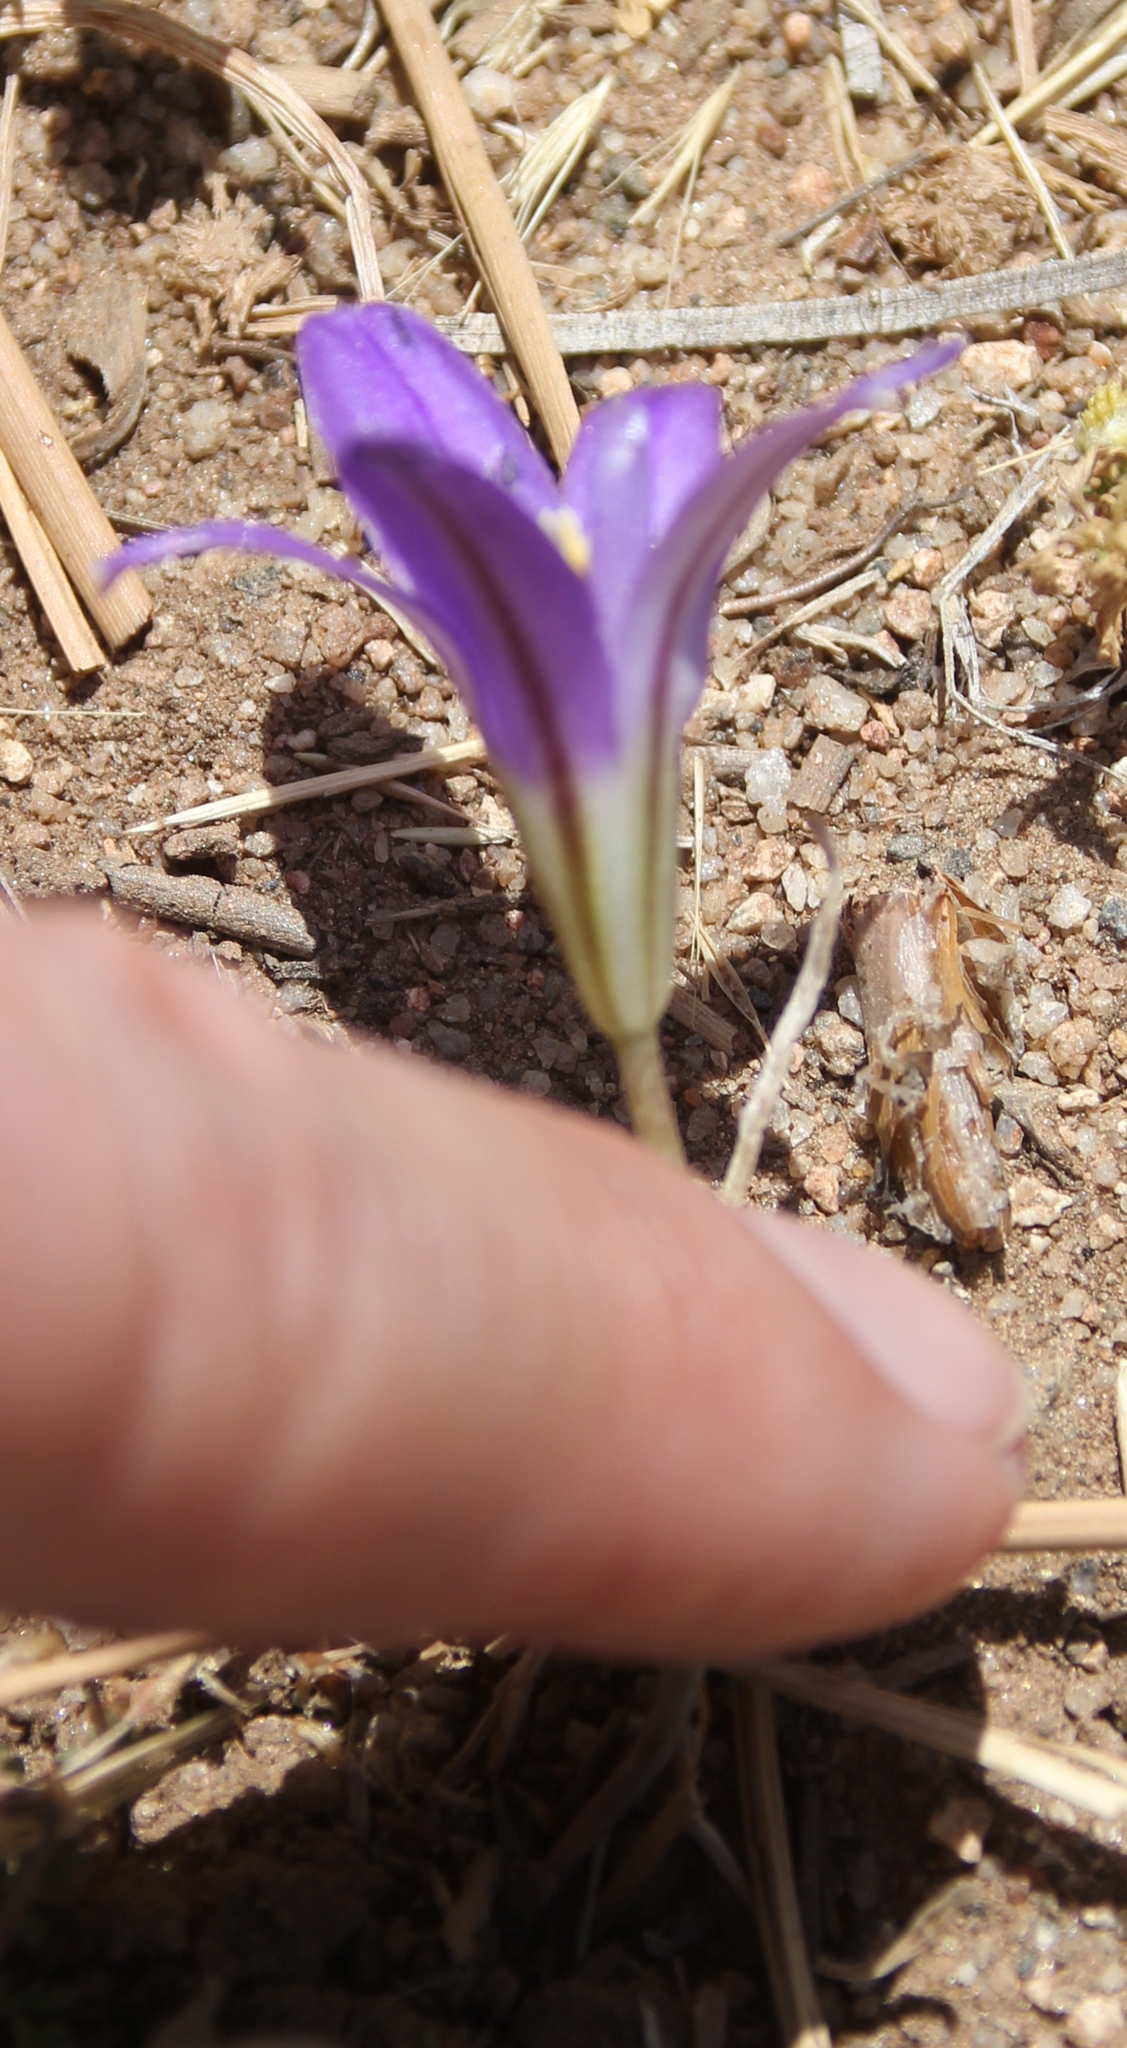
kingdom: Plantae
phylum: Tracheophyta
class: Liliopsida
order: Asparagales
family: Asparagaceae
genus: Brodiaea
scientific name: Brodiaea terrestris
